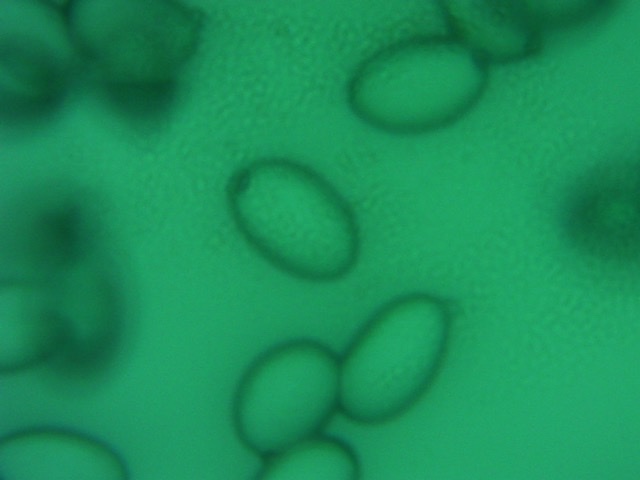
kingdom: Fungi
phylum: Basidiomycota
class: Agaricomycetes
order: Agaricales
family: Amanitaceae
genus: Amanita
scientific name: Amanita peckiana
